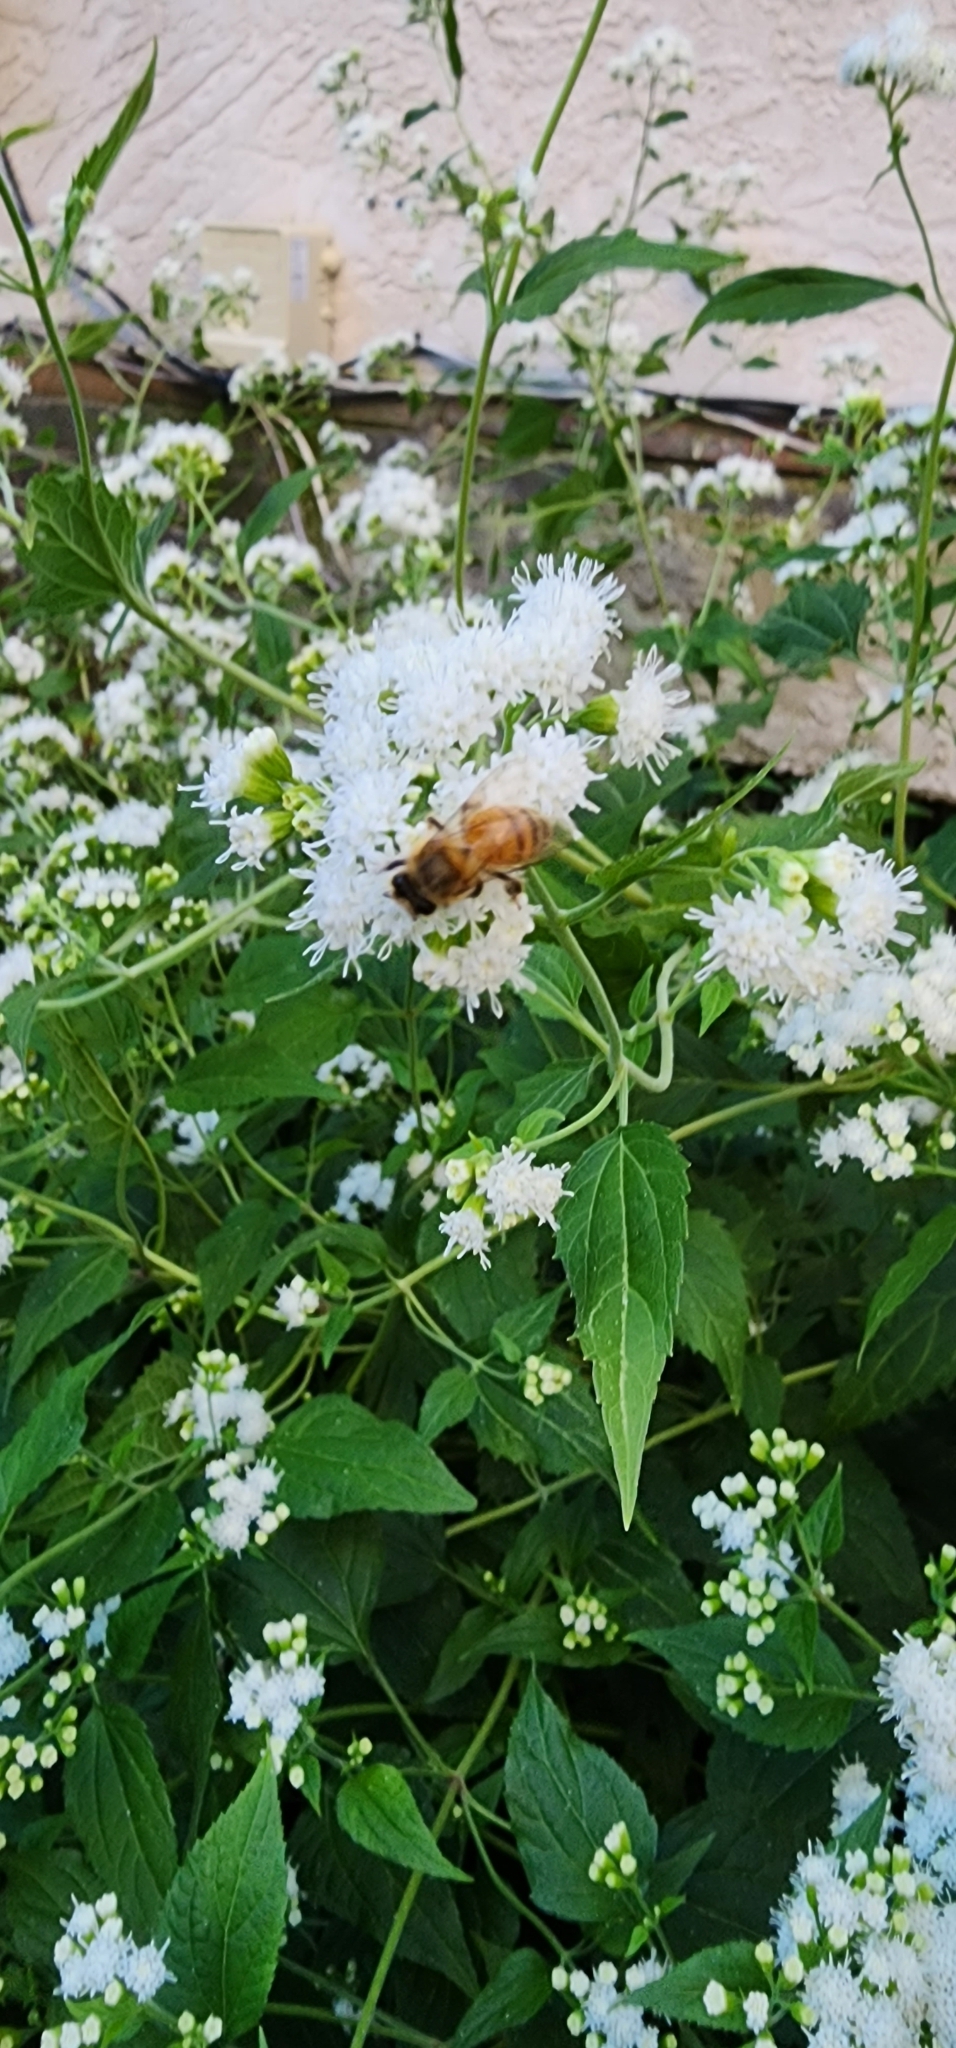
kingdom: Animalia
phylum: Arthropoda
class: Insecta
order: Hymenoptera
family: Apidae
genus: Apis
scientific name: Apis mellifera
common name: Honey bee
